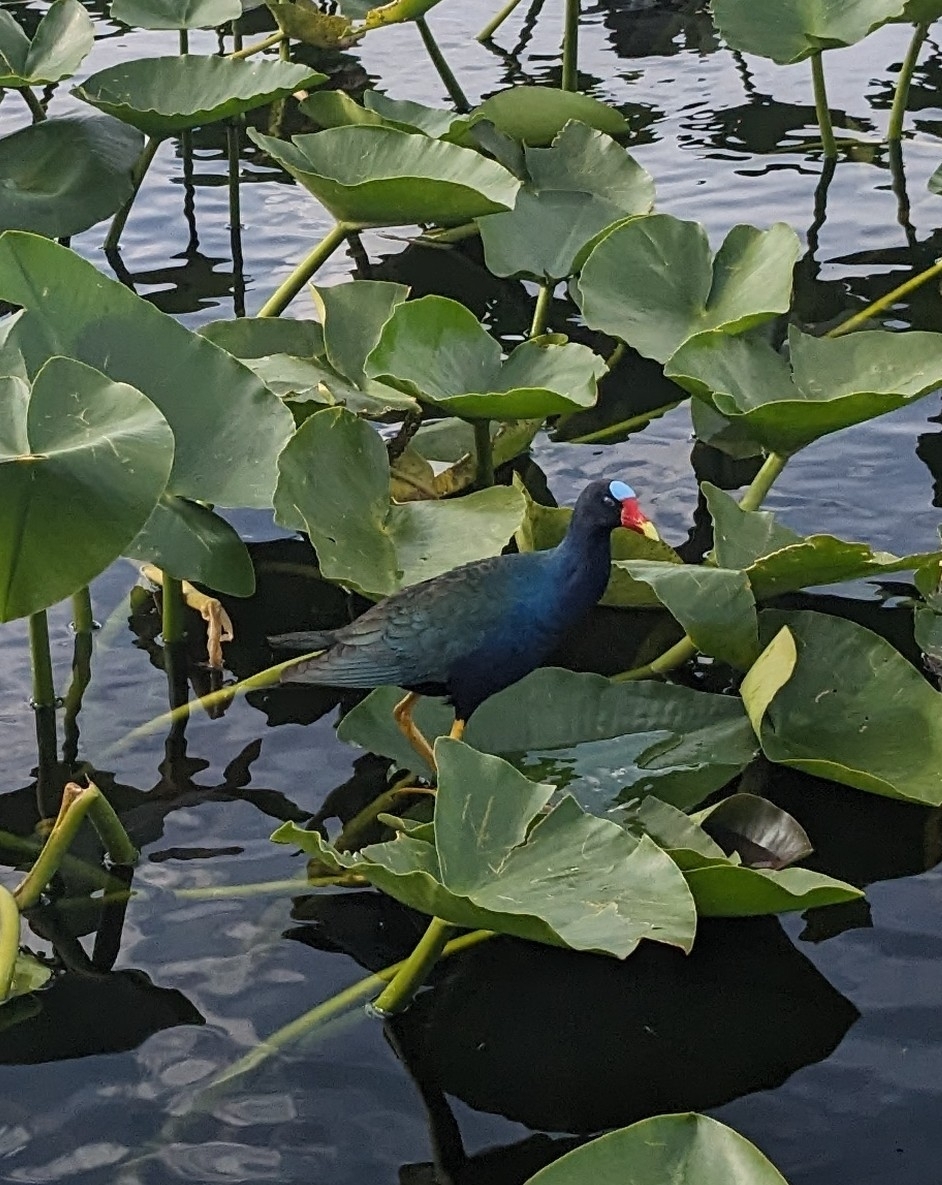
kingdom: Animalia
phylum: Chordata
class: Aves
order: Gruiformes
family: Rallidae
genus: Porphyrio
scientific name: Porphyrio martinica
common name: Purple gallinule
